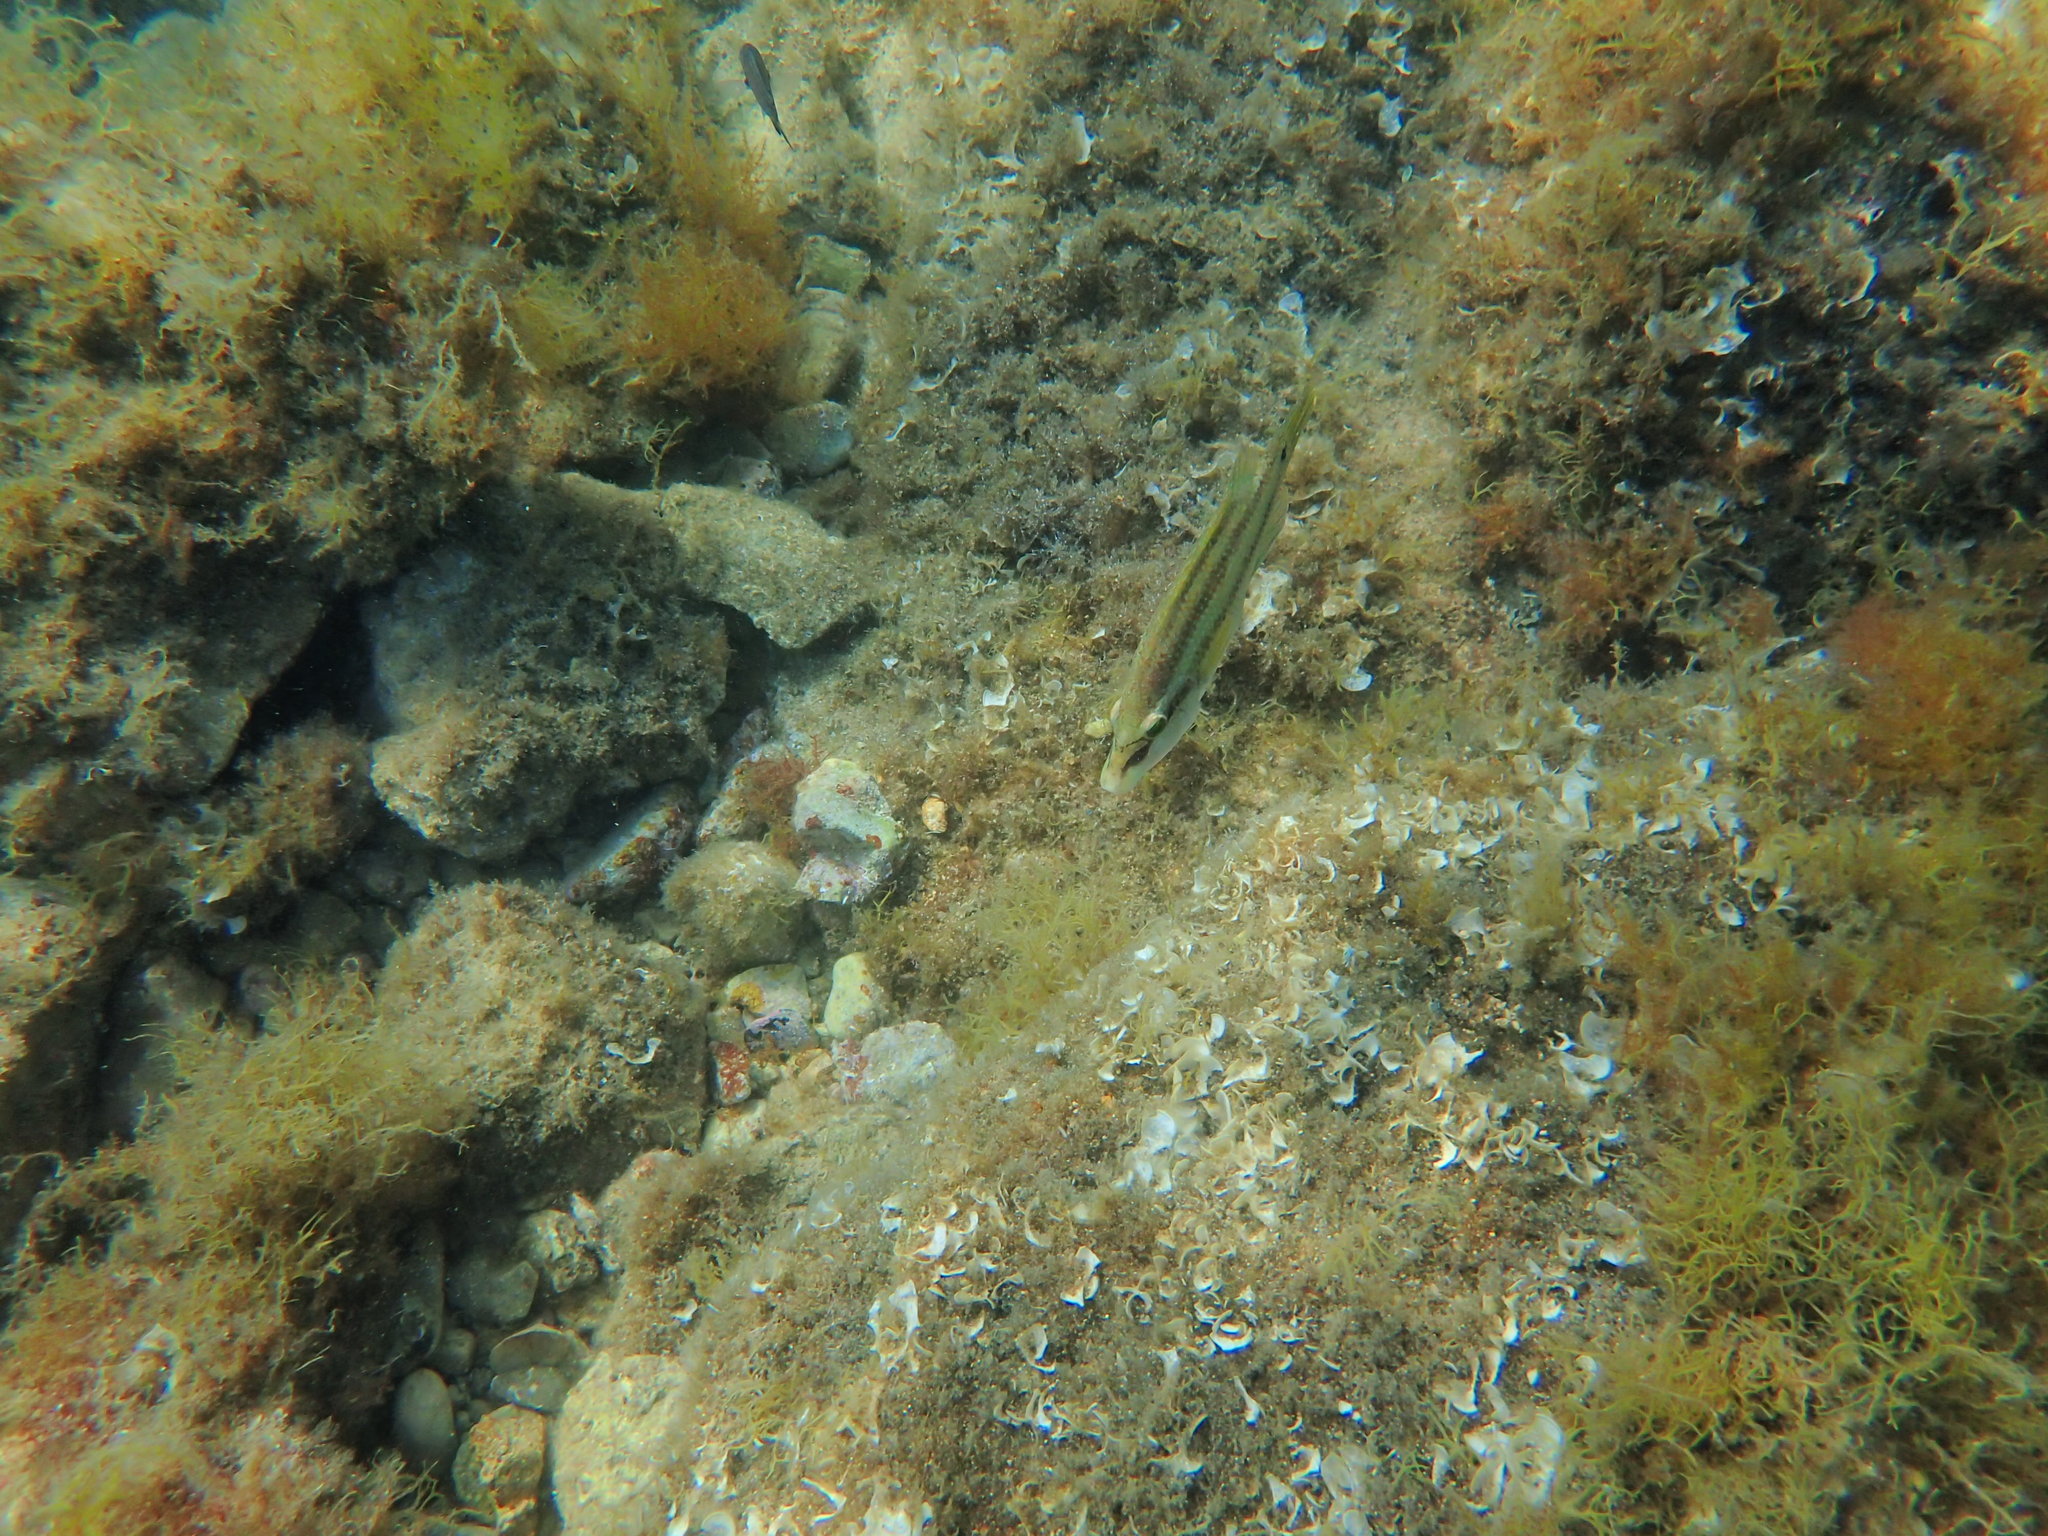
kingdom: Animalia
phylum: Chordata
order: Perciformes
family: Labridae
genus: Symphodus
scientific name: Symphodus tinca
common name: Peacock wrasse
